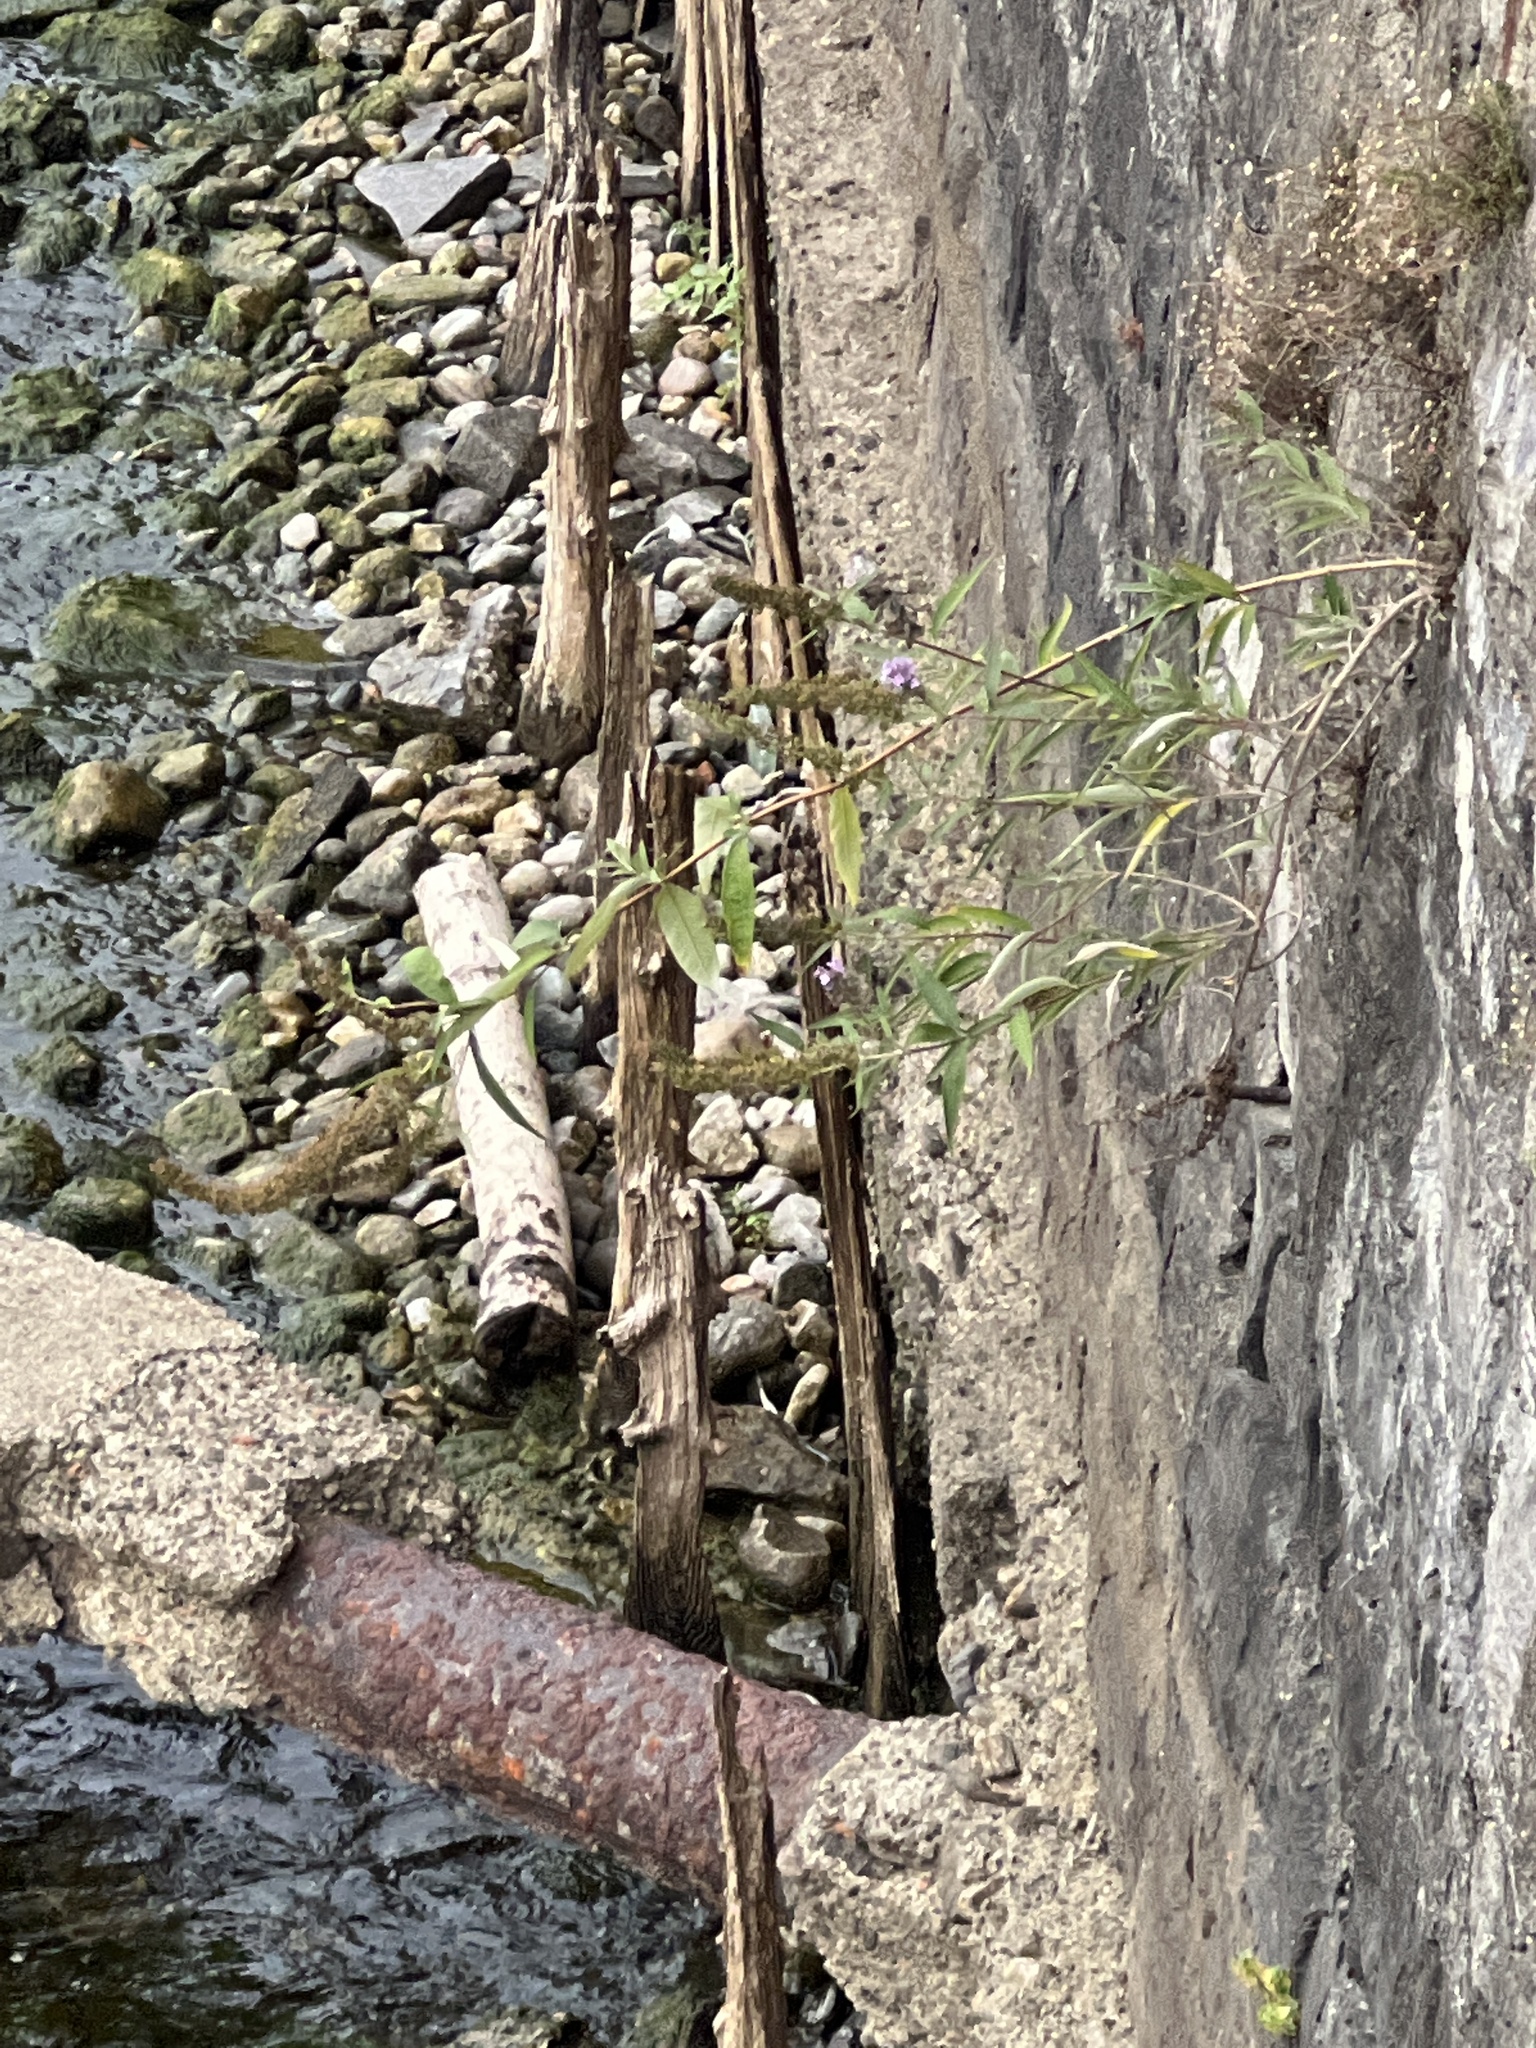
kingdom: Plantae
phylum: Tracheophyta
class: Magnoliopsida
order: Lamiales
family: Scrophulariaceae
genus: Buddleja
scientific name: Buddleja davidii
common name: Butterfly-bush
